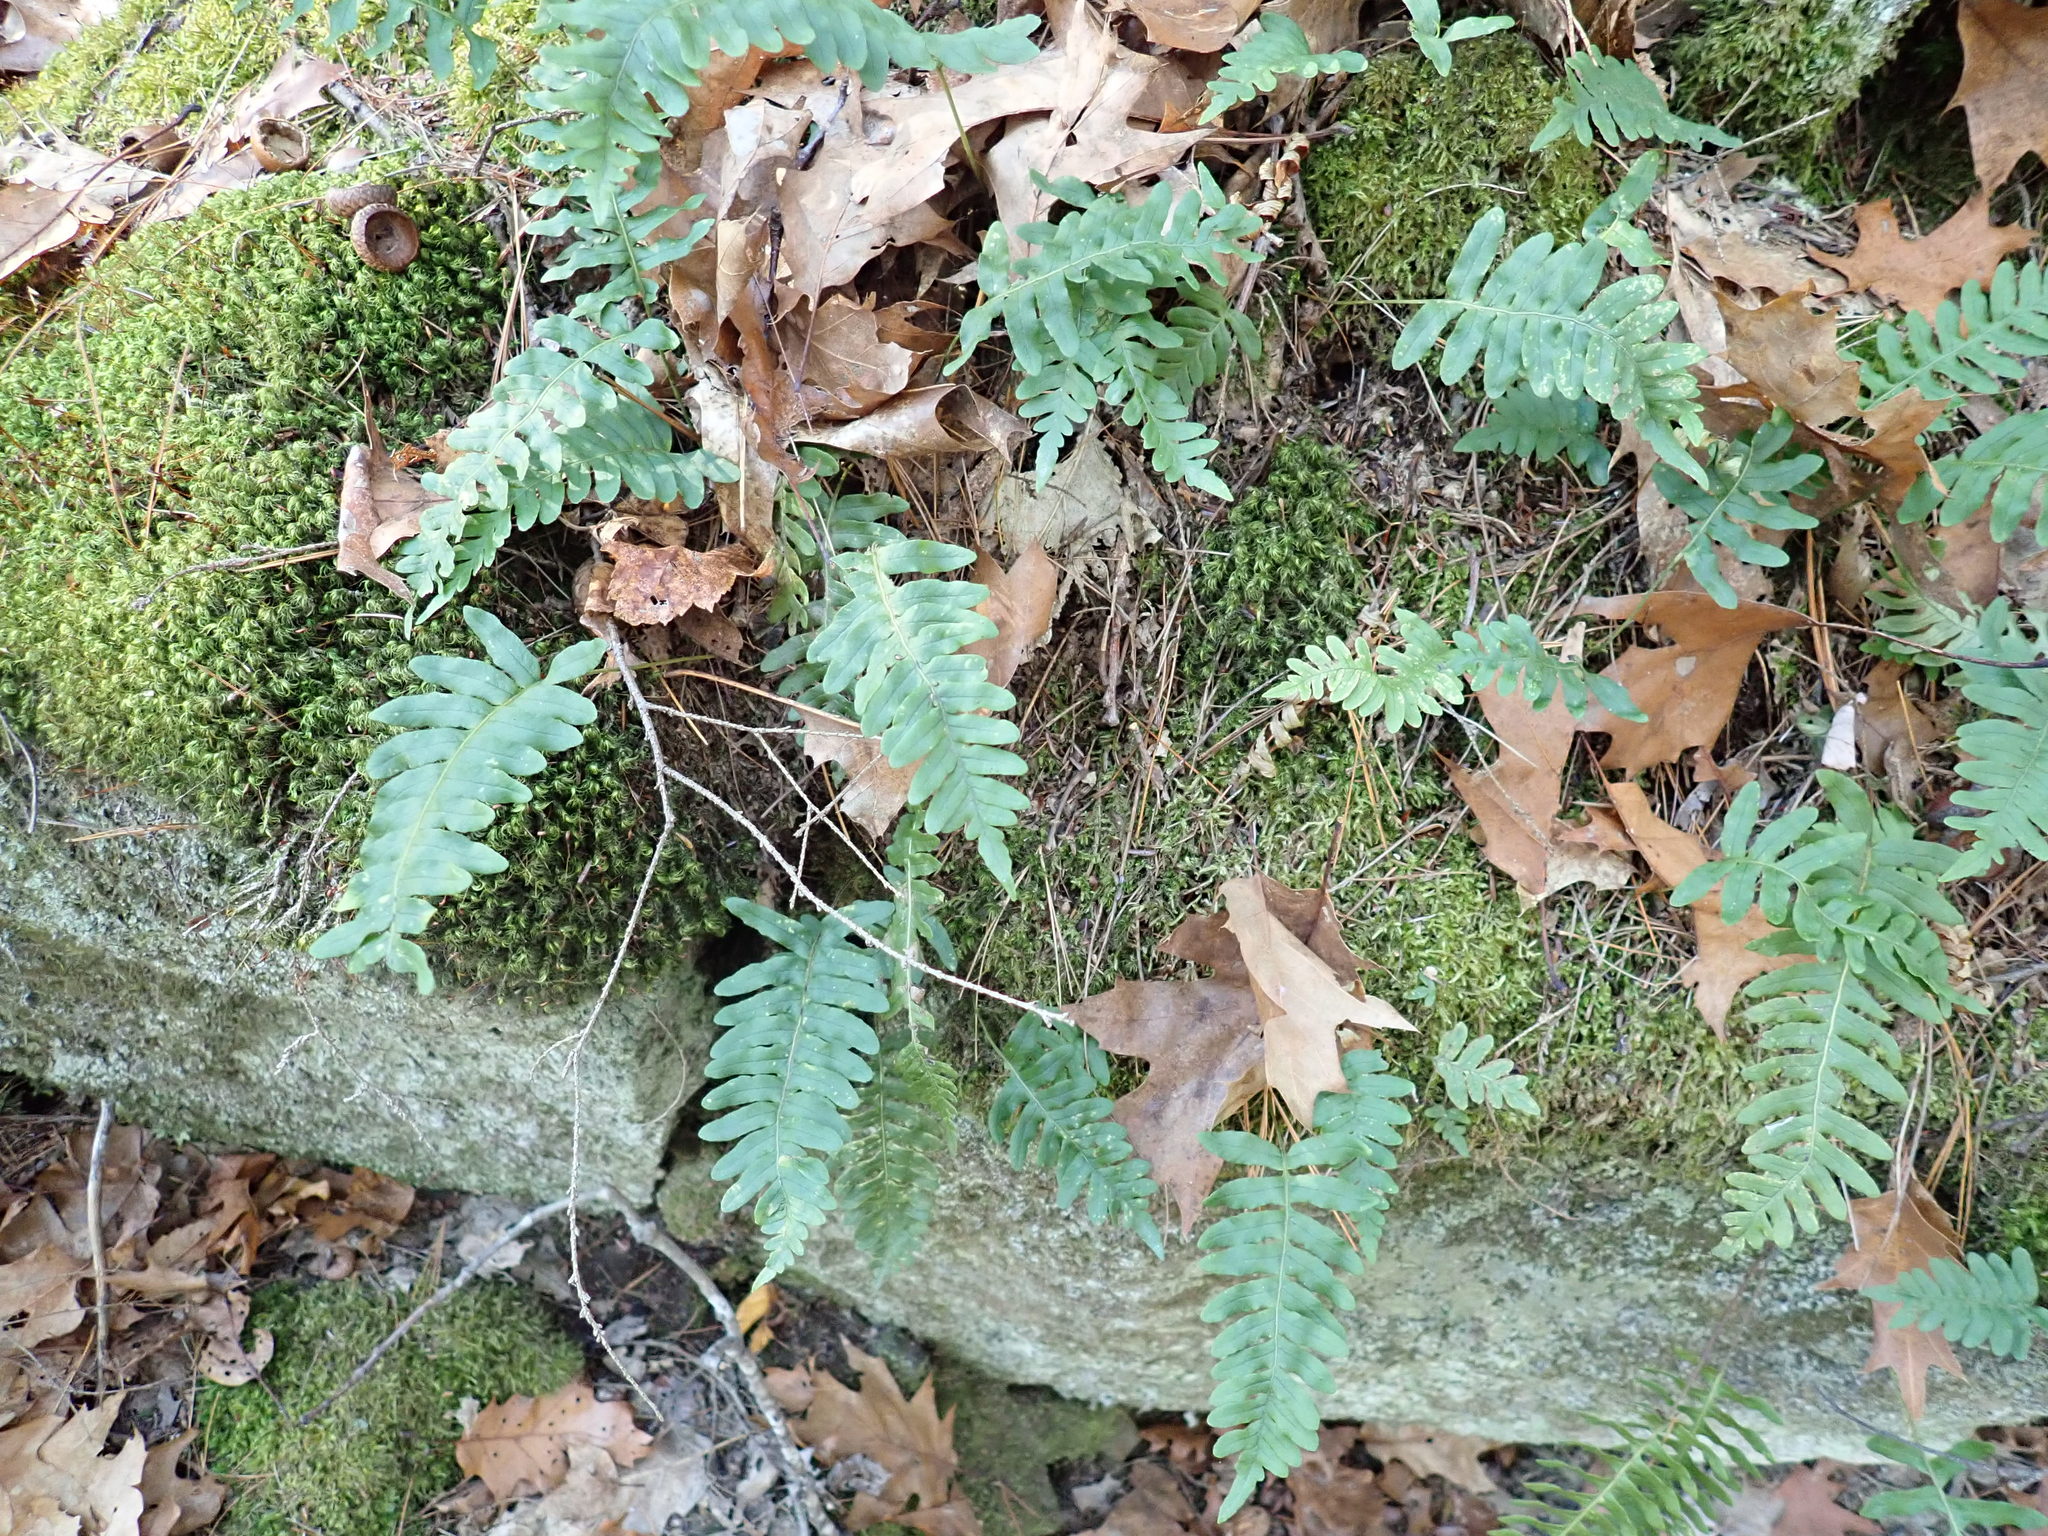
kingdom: Plantae
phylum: Tracheophyta
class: Polypodiopsida
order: Polypodiales
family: Polypodiaceae
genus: Polypodium
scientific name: Polypodium
